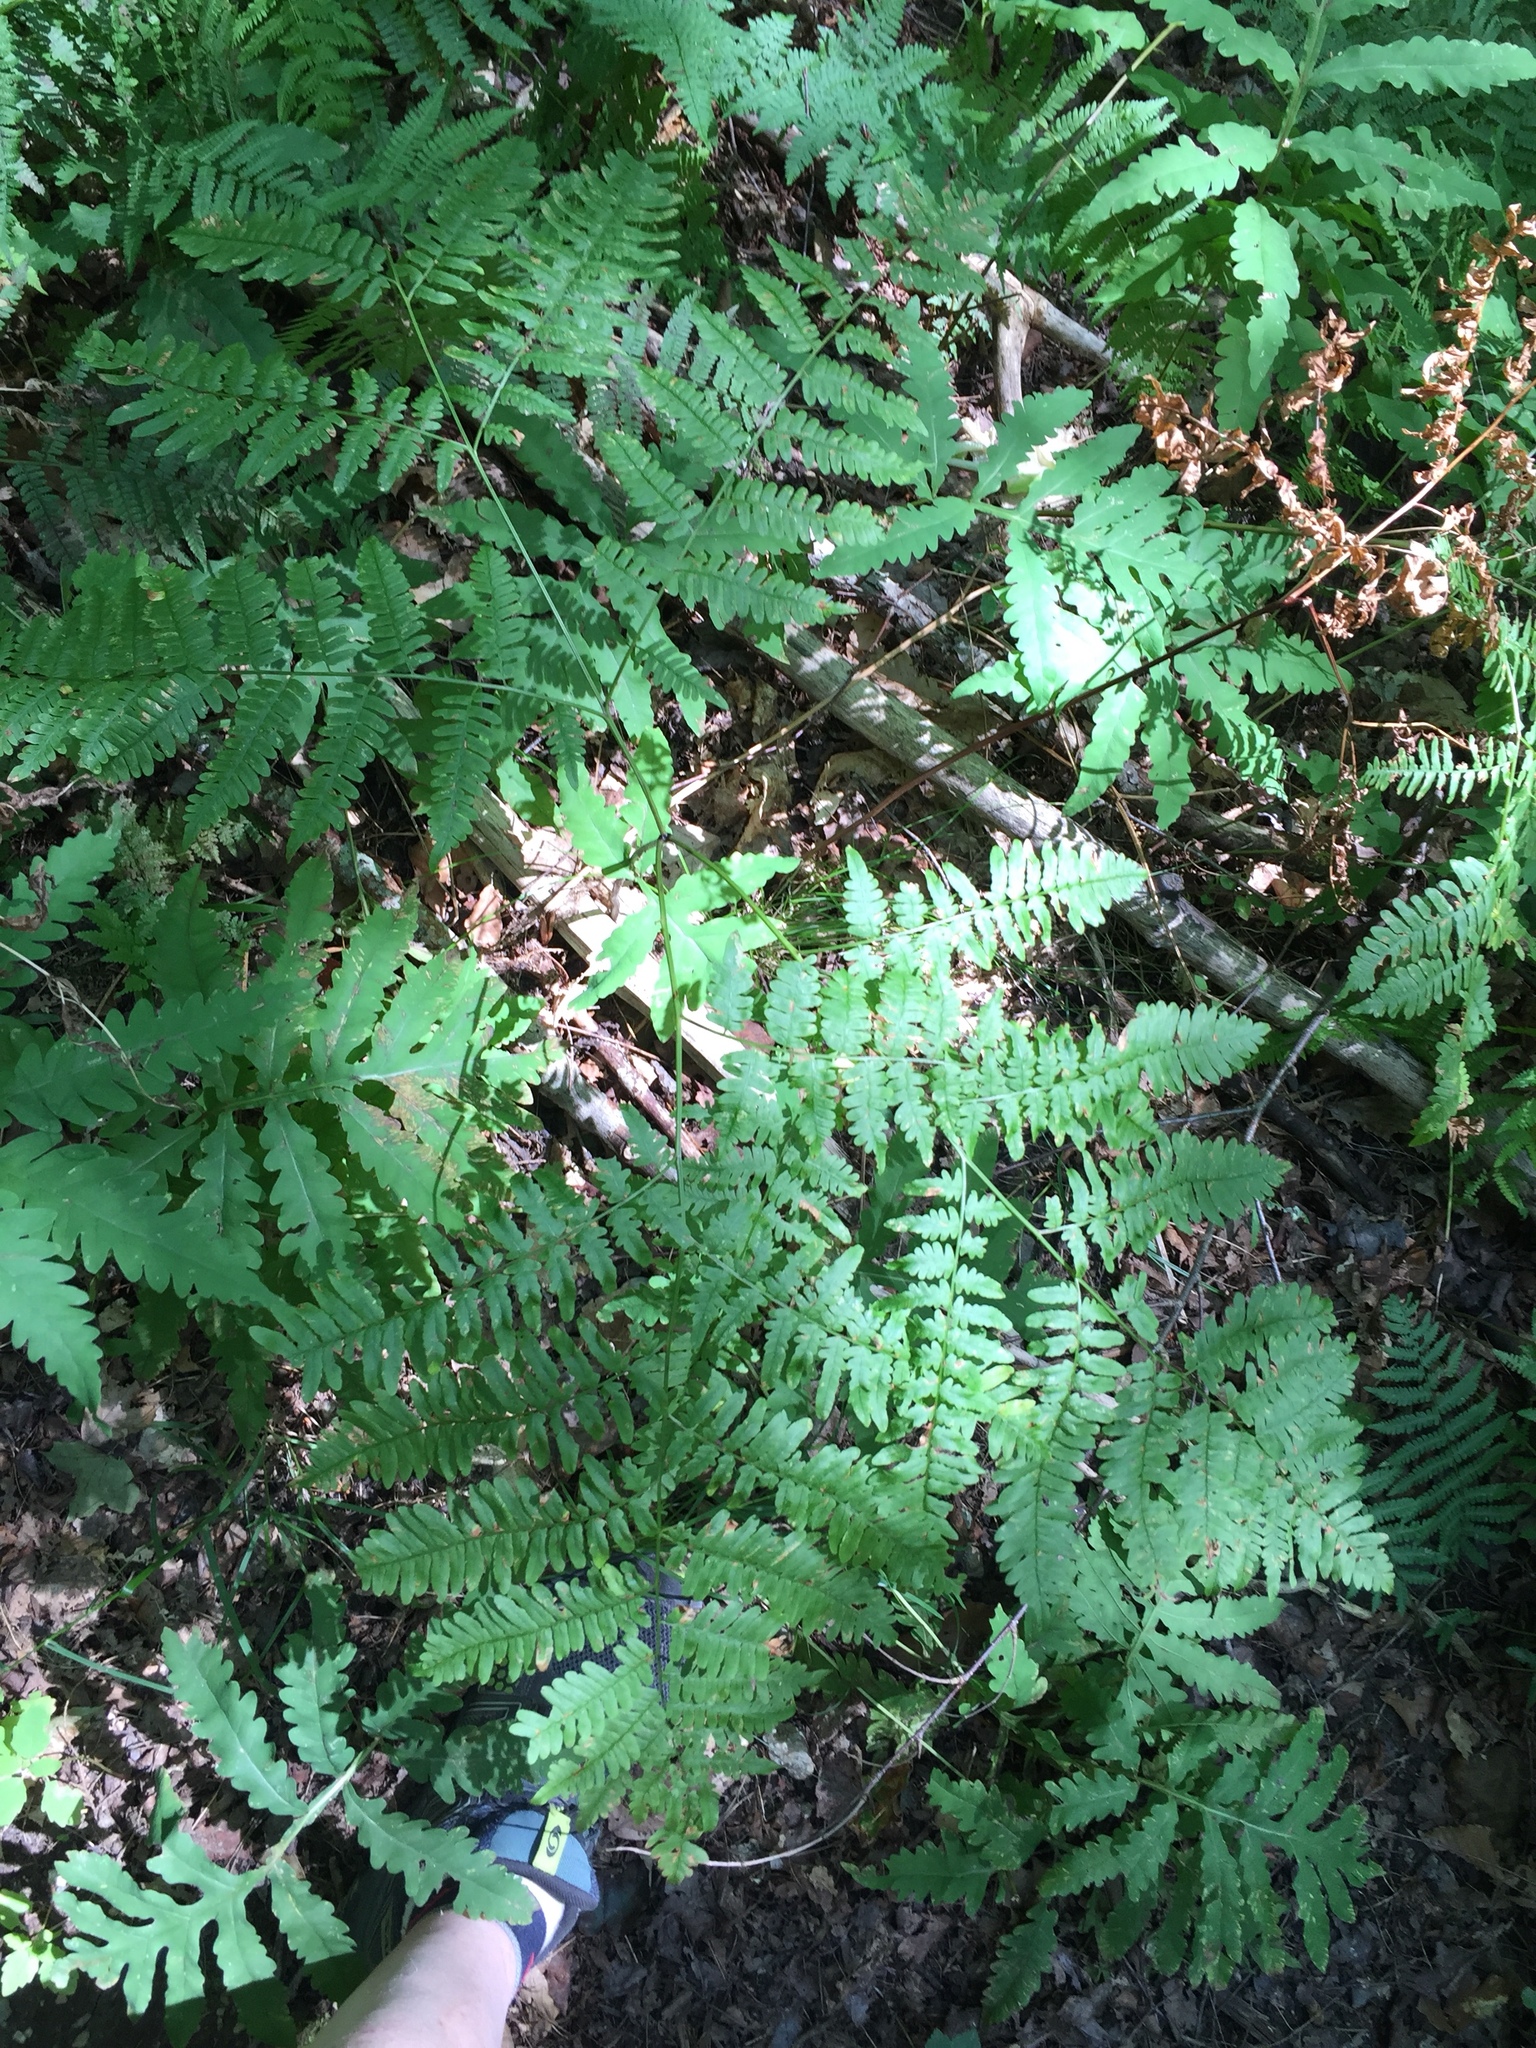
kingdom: Plantae
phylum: Tracheophyta
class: Polypodiopsida
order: Polypodiales
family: Dennstaedtiaceae
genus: Pteridium
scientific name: Pteridium aquilinum
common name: Bracken
